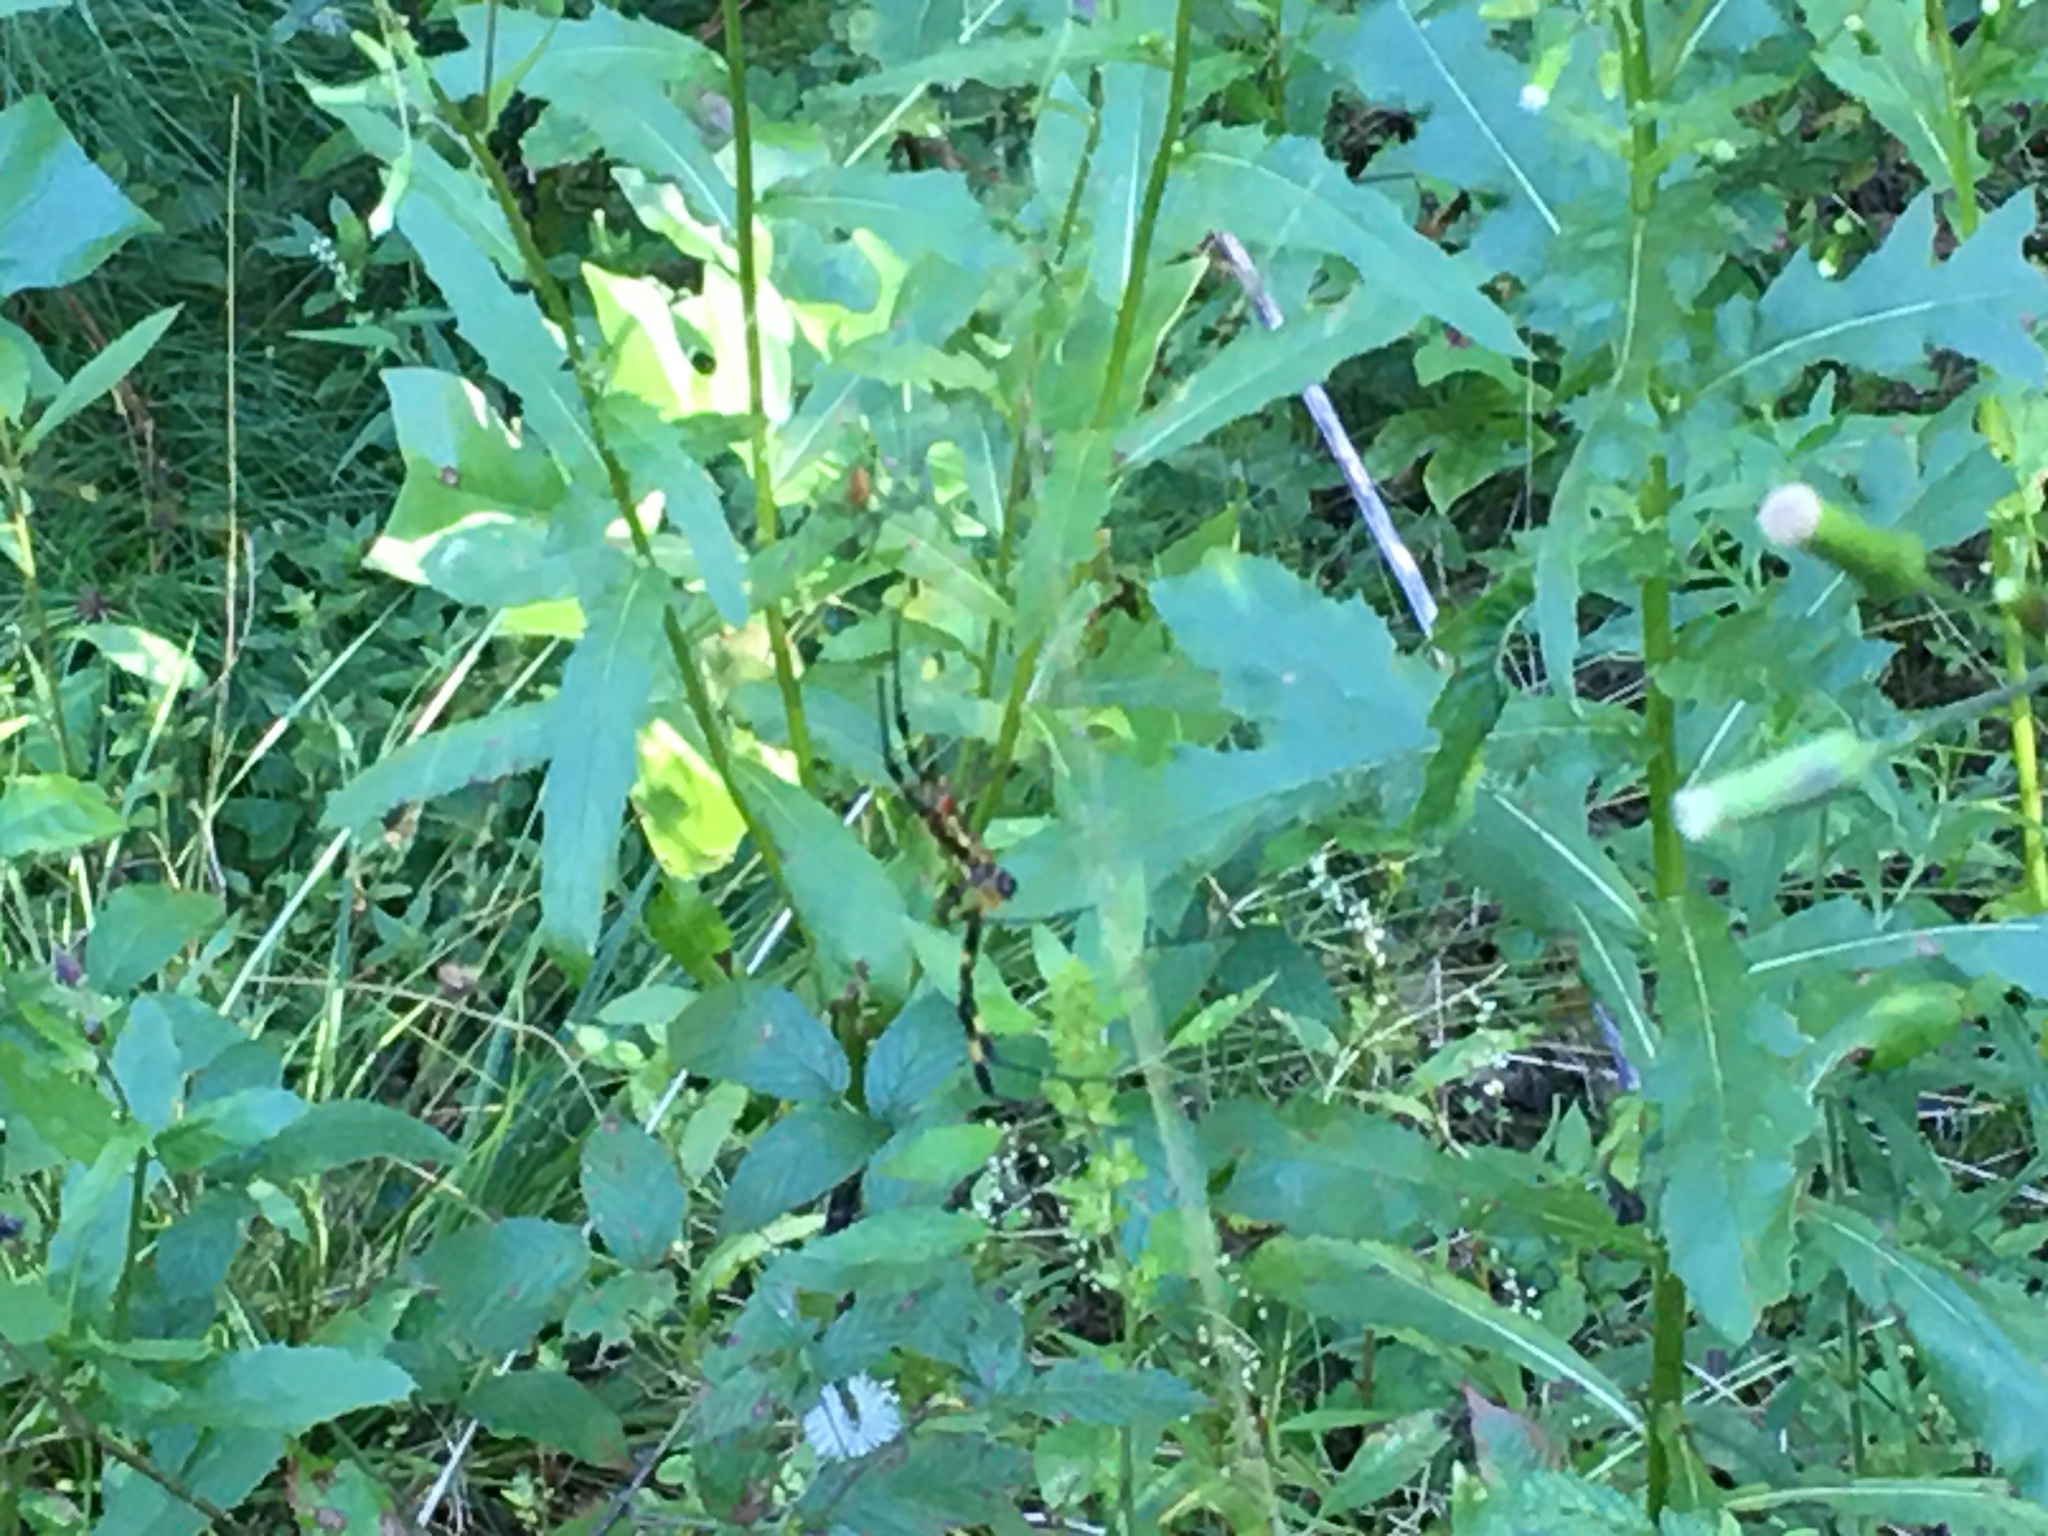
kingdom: Animalia
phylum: Arthropoda
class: Arachnida
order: Araneae
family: Araneidae
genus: Trichonephila
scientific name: Trichonephila clavata
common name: Jorō spider
